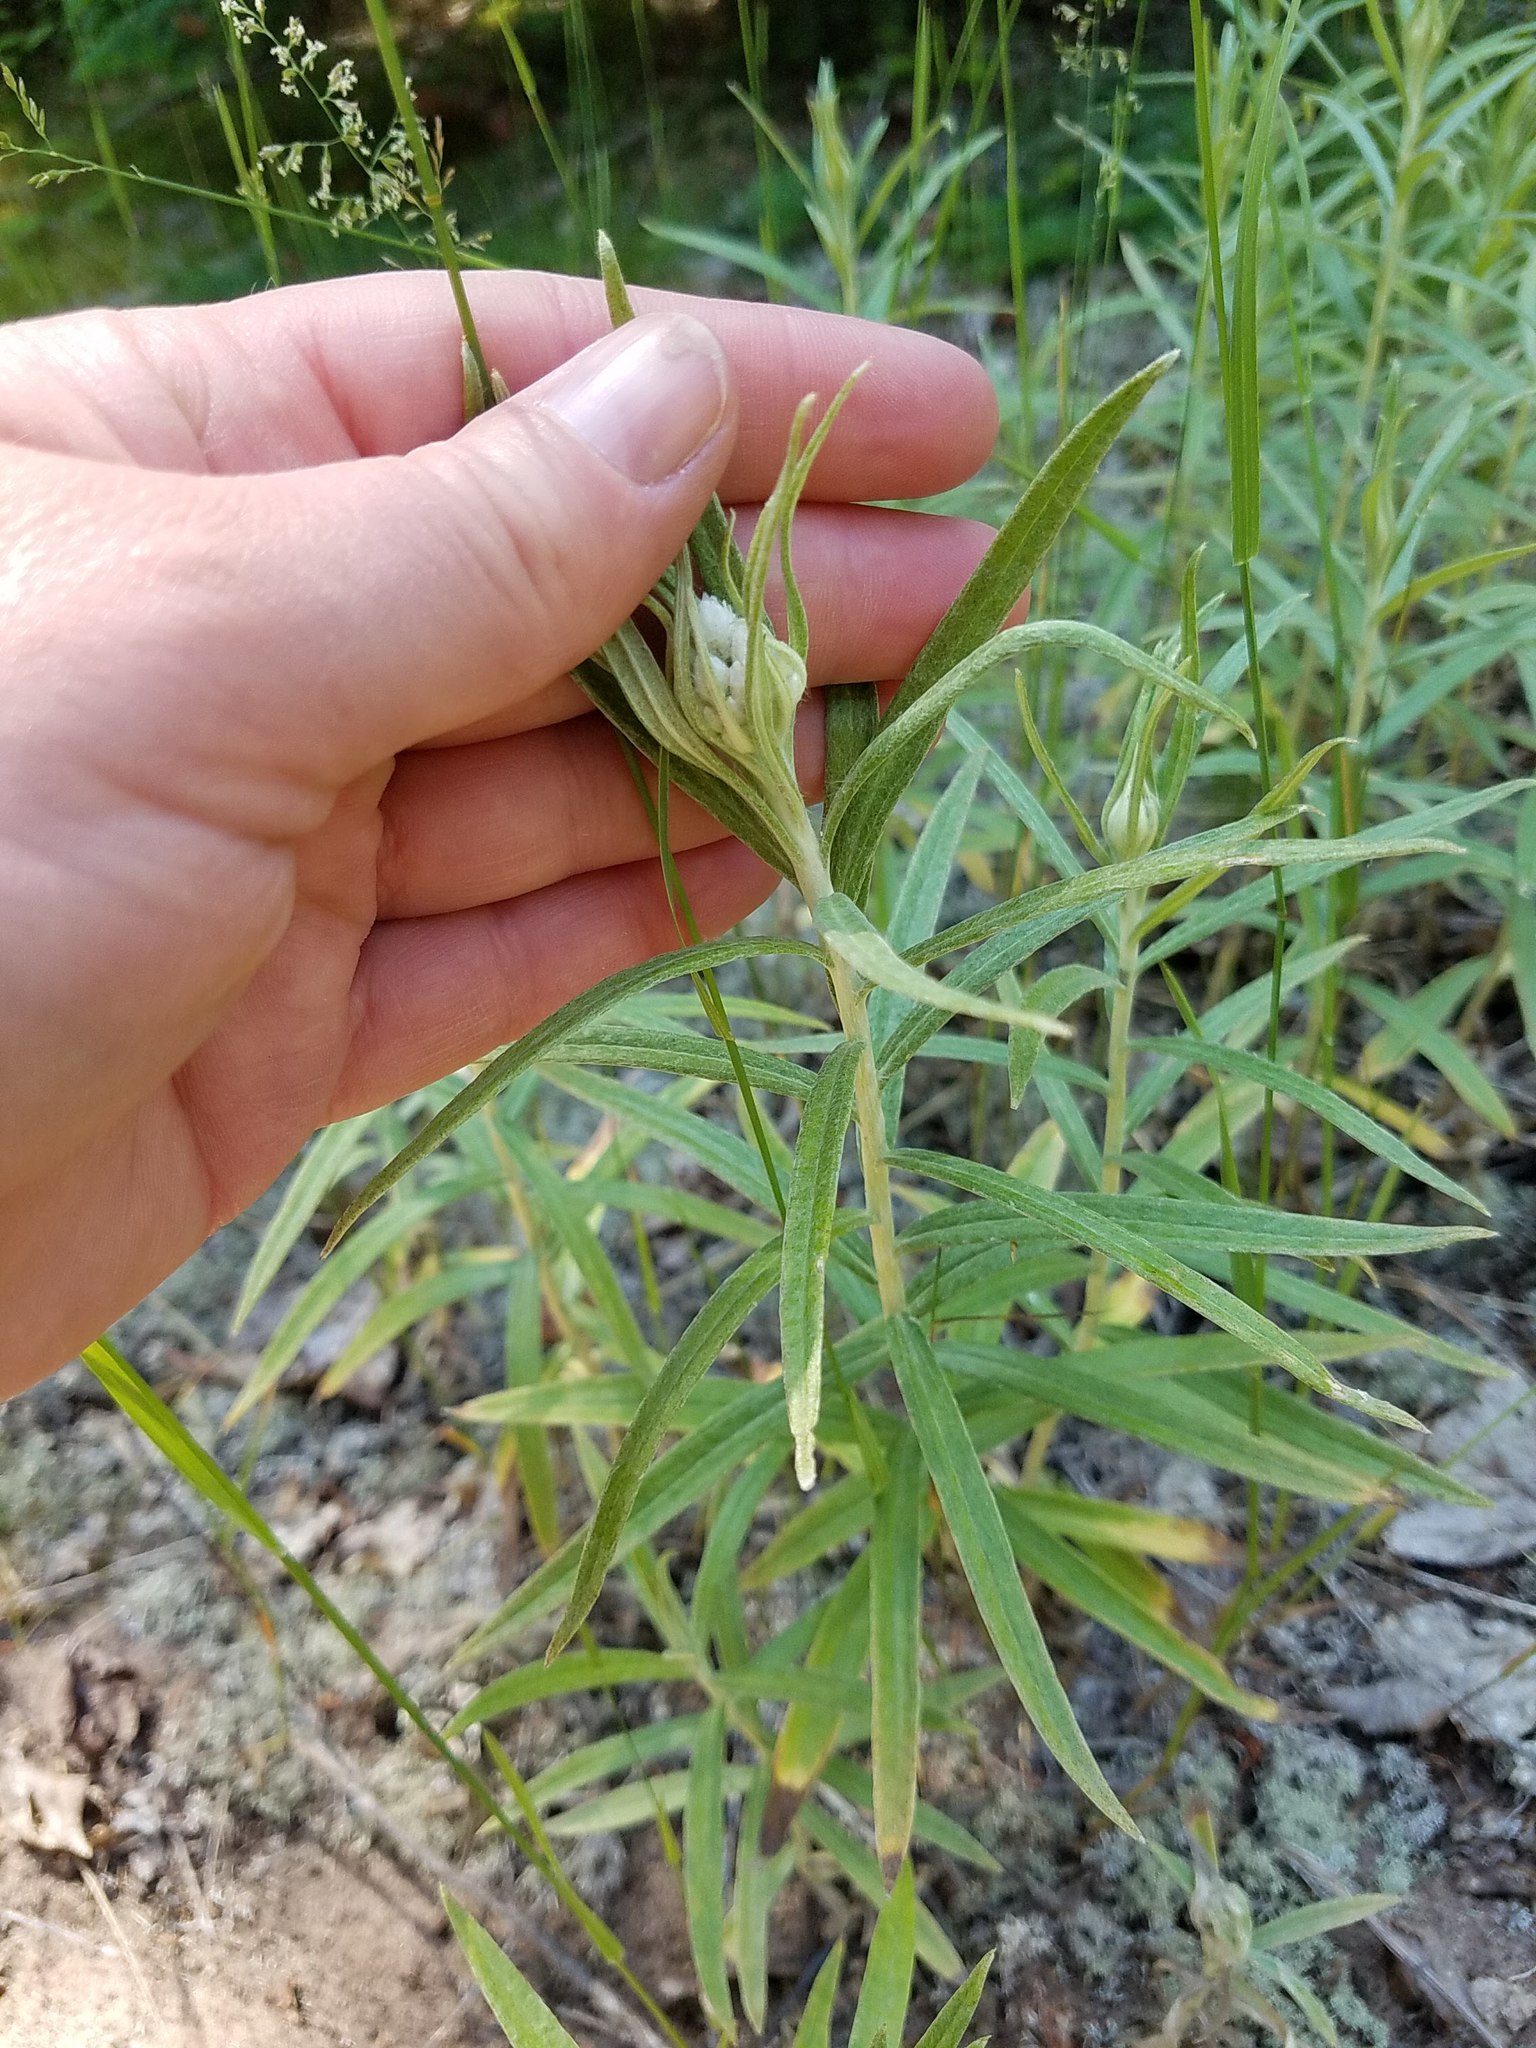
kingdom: Plantae
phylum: Tracheophyta
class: Magnoliopsida
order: Asterales
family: Asteraceae
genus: Anaphalis
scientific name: Anaphalis margaritacea
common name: Pearly everlasting
